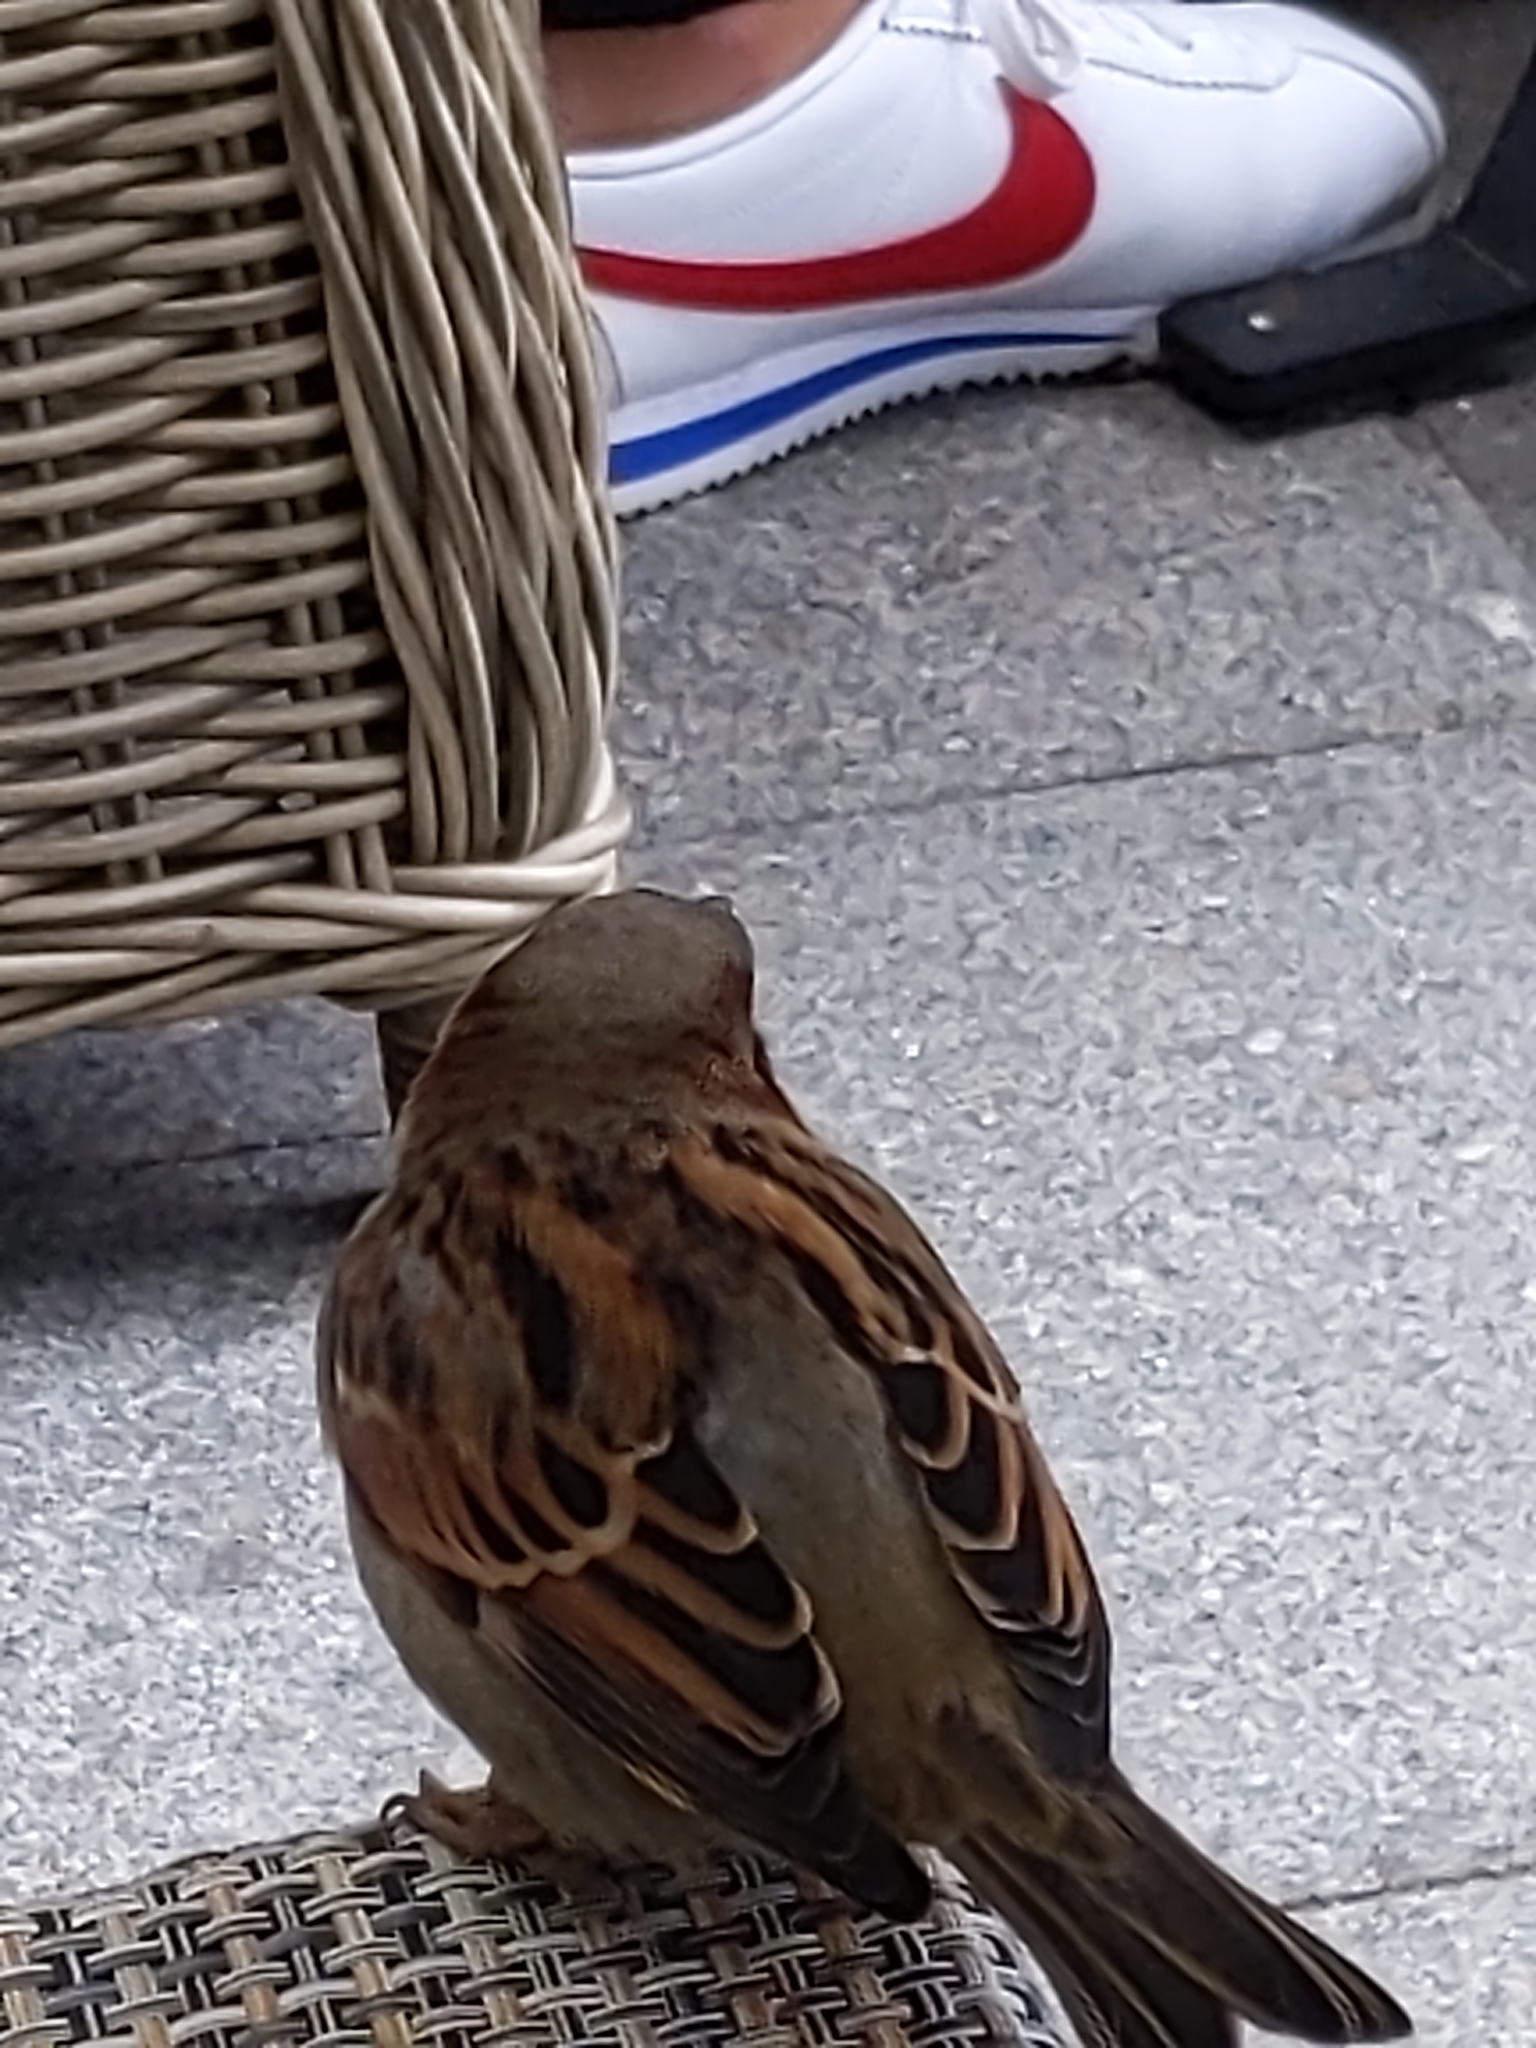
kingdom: Animalia
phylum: Chordata
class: Aves
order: Passeriformes
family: Passeridae
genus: Passer
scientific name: Passer domesticus
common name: House sparrow
